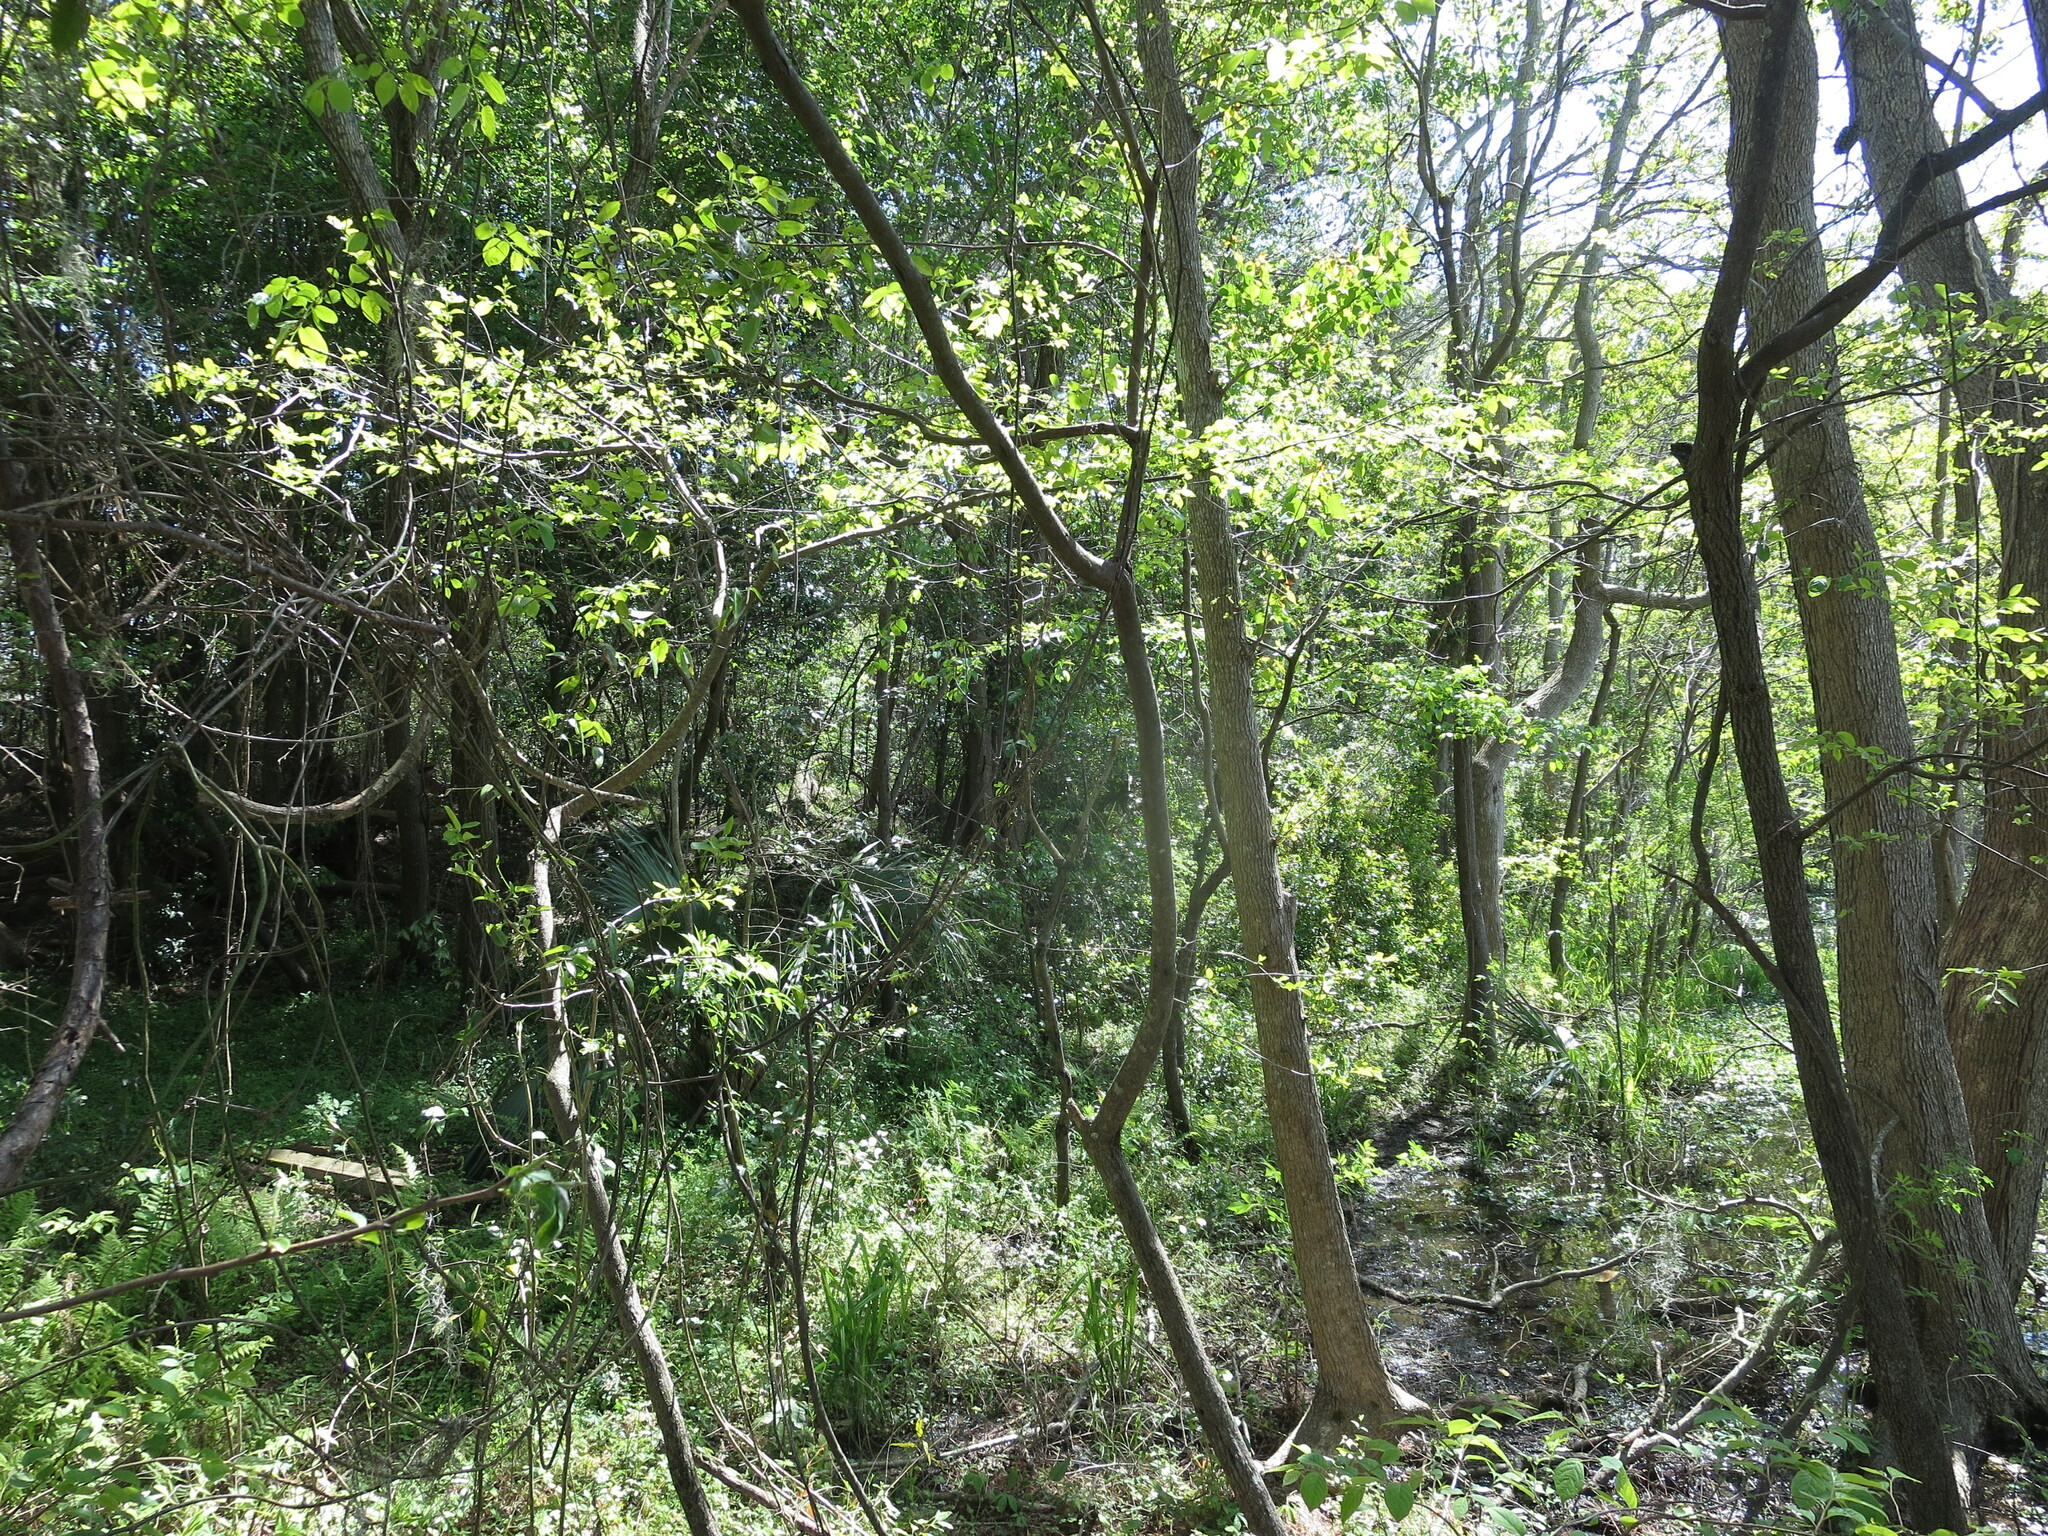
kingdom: Plantae
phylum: Tracheophyta
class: Magnoliopsida
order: Ericales
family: Ebenaceae
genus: Diospyros
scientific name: Diospyros virginiana
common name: Persimmon
